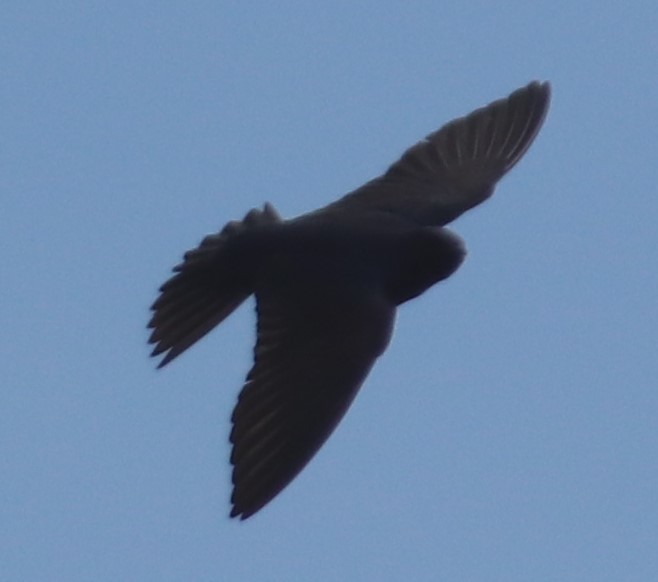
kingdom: Animalia
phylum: Chordata
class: Aves
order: Passeriformes
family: Hirundinidae
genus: Progne
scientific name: Progne subis
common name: Purple martin
